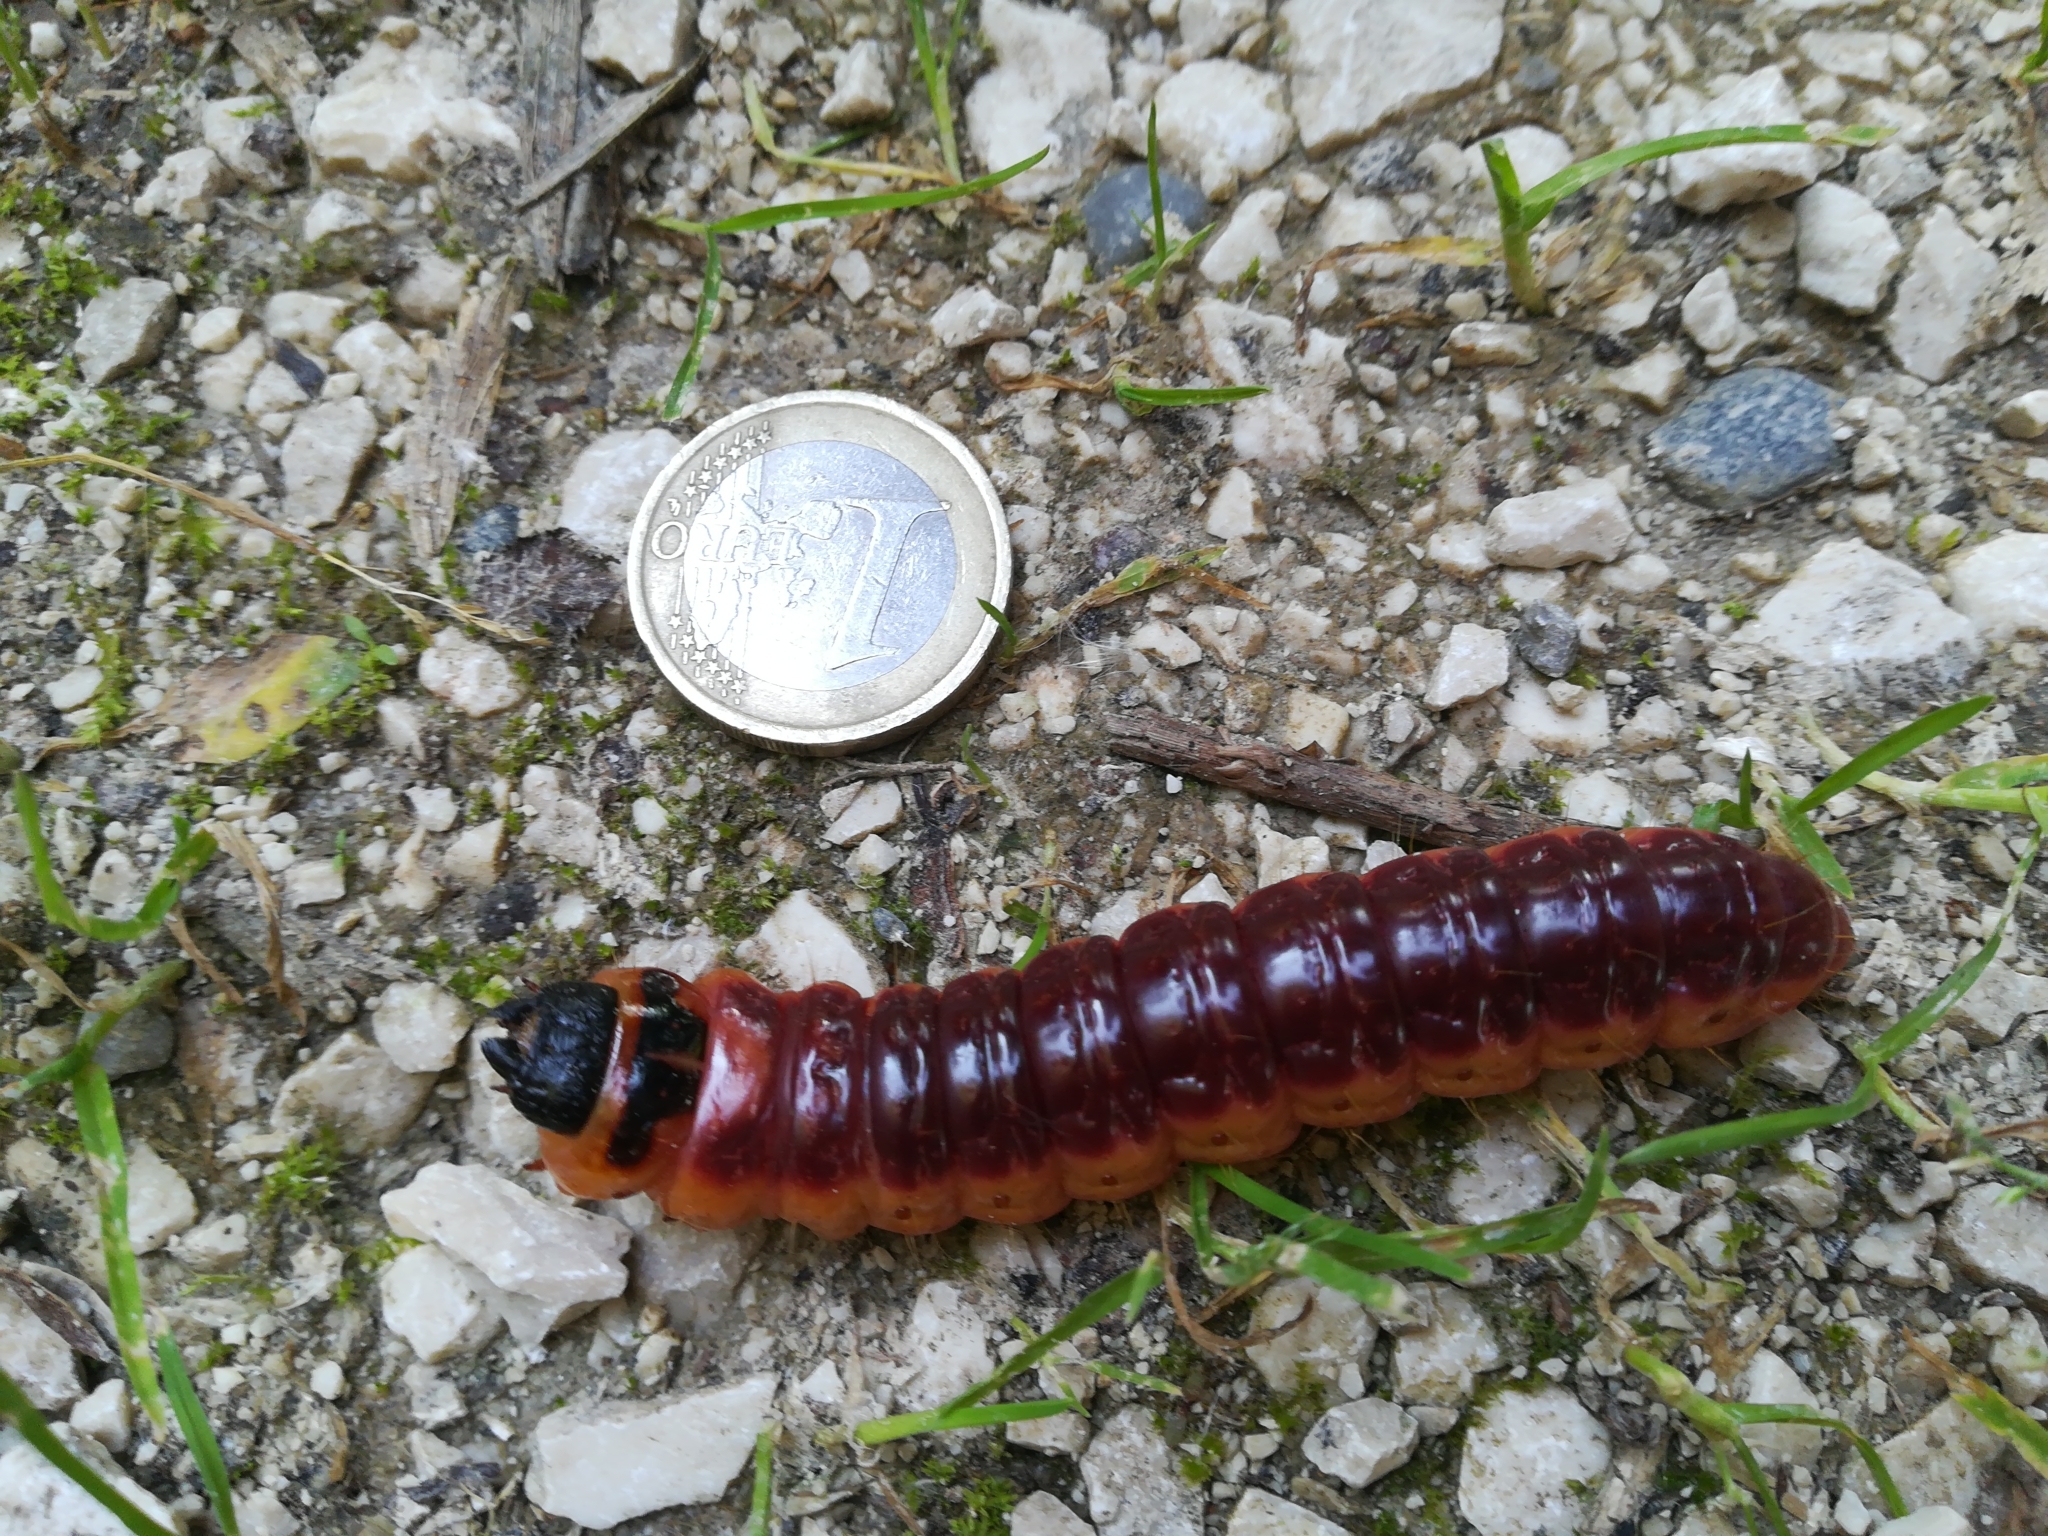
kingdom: Animalia
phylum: Arthropoda
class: Insecta
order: Lepidoptera
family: Cossidae
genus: Cossus
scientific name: Cossus cossus
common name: Goat moth
